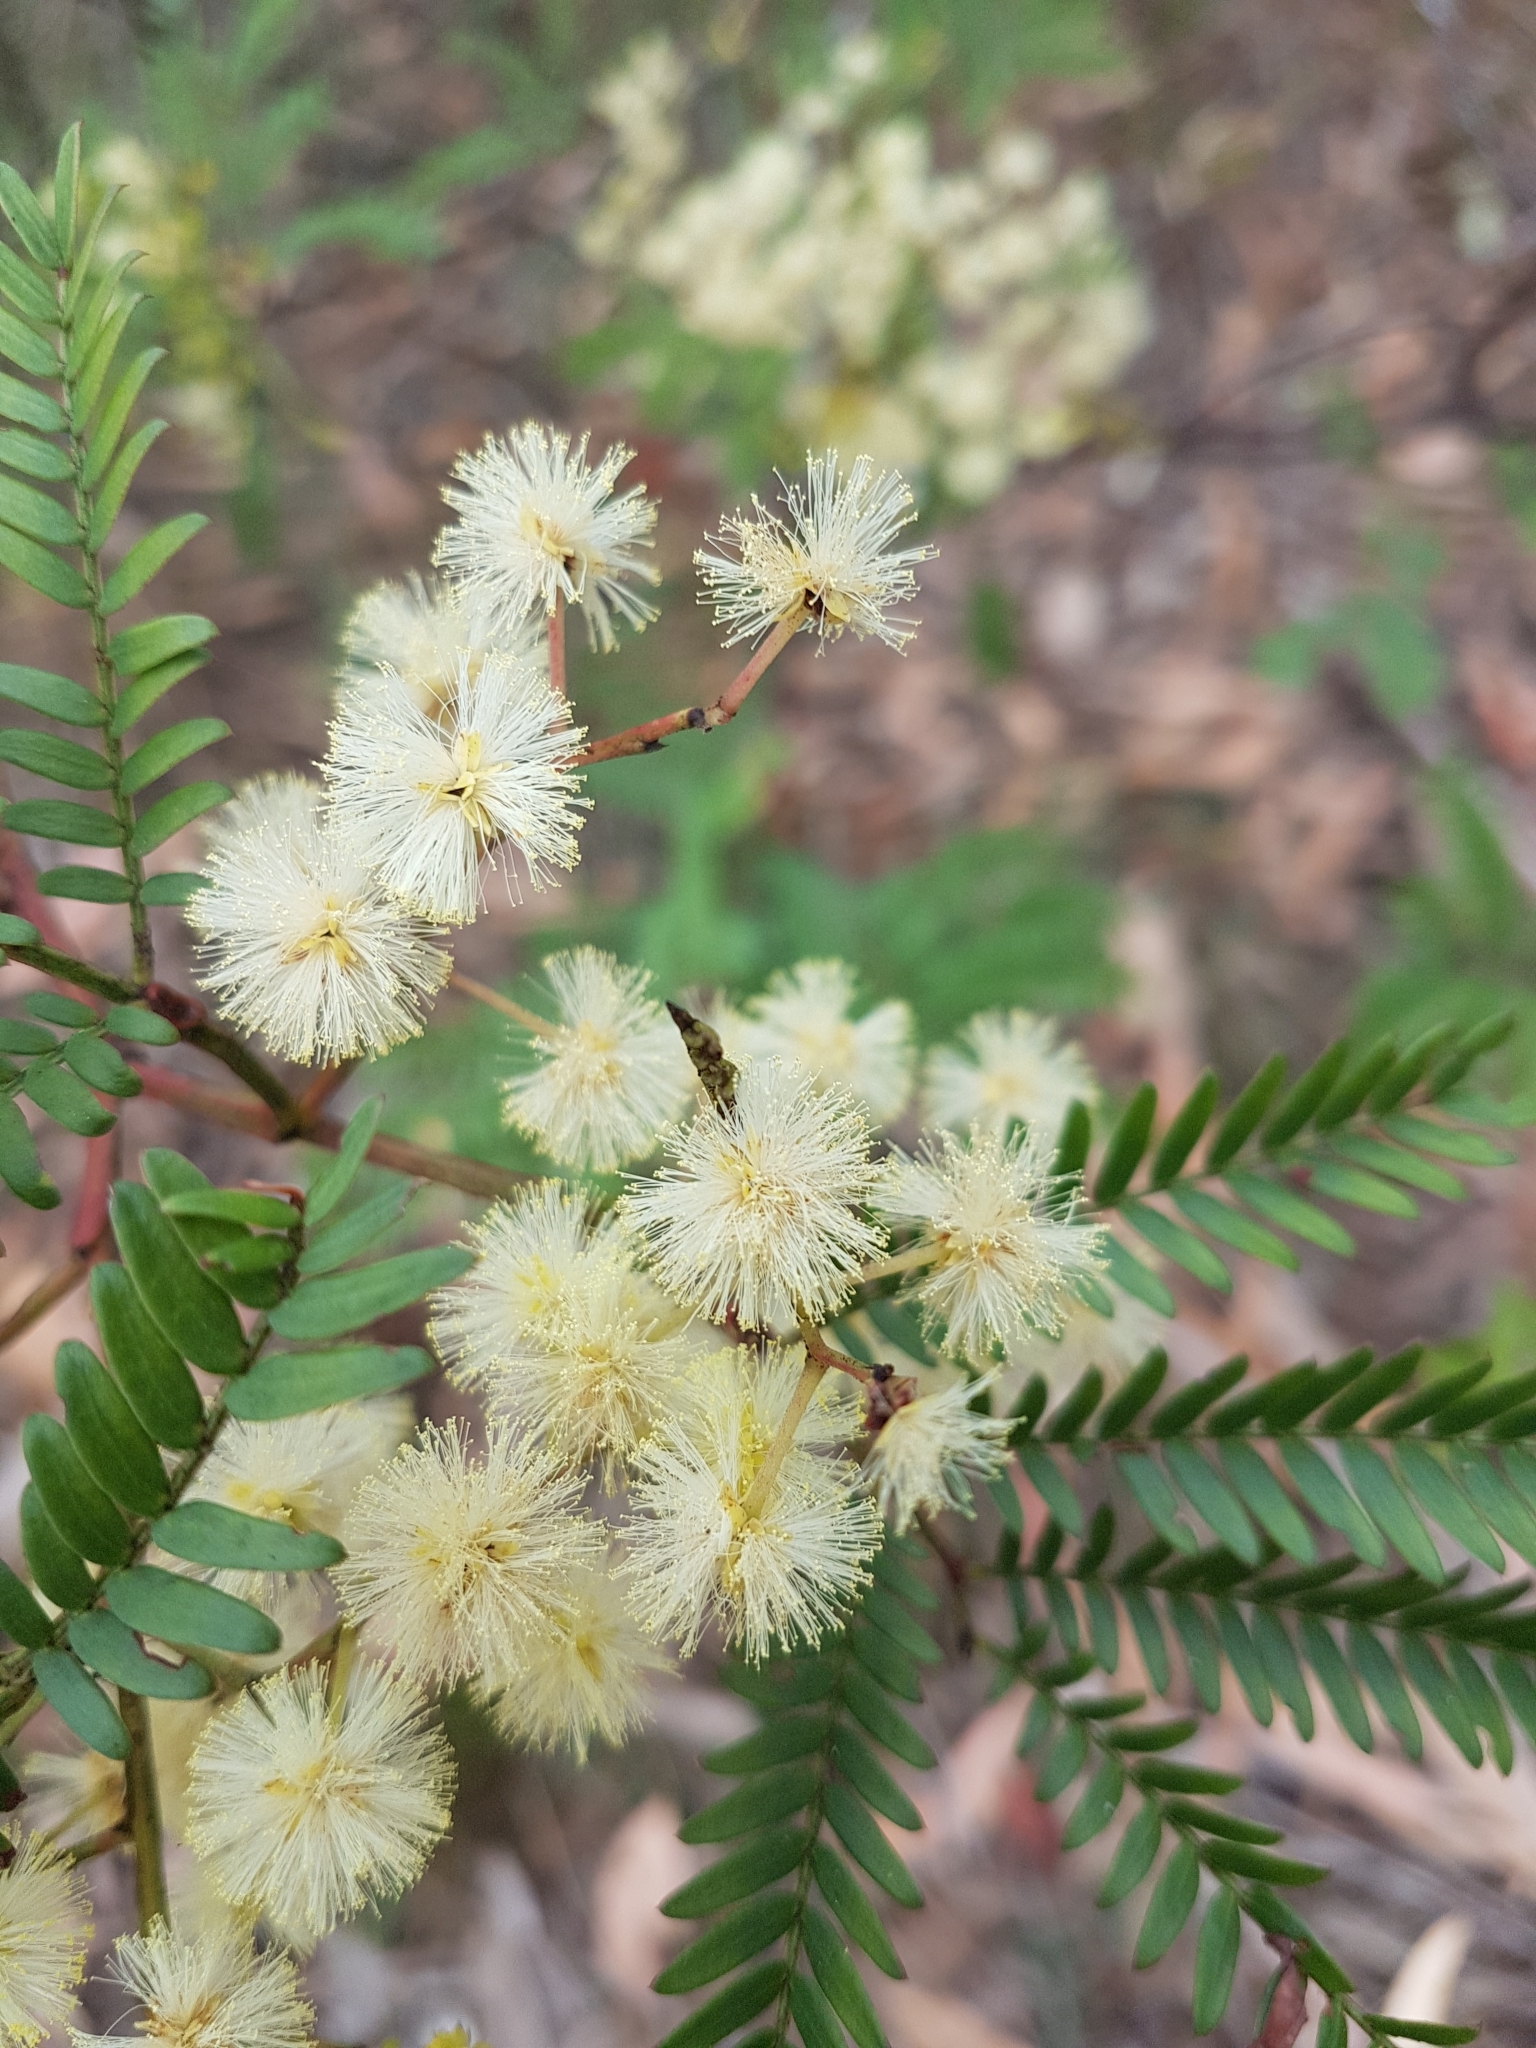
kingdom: Plantae
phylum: Tracheophyta
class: Magnoliopsida
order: Fabales
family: Fabaceae
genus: Acacia
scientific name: Acacia terminalis
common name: Cedar wattle
